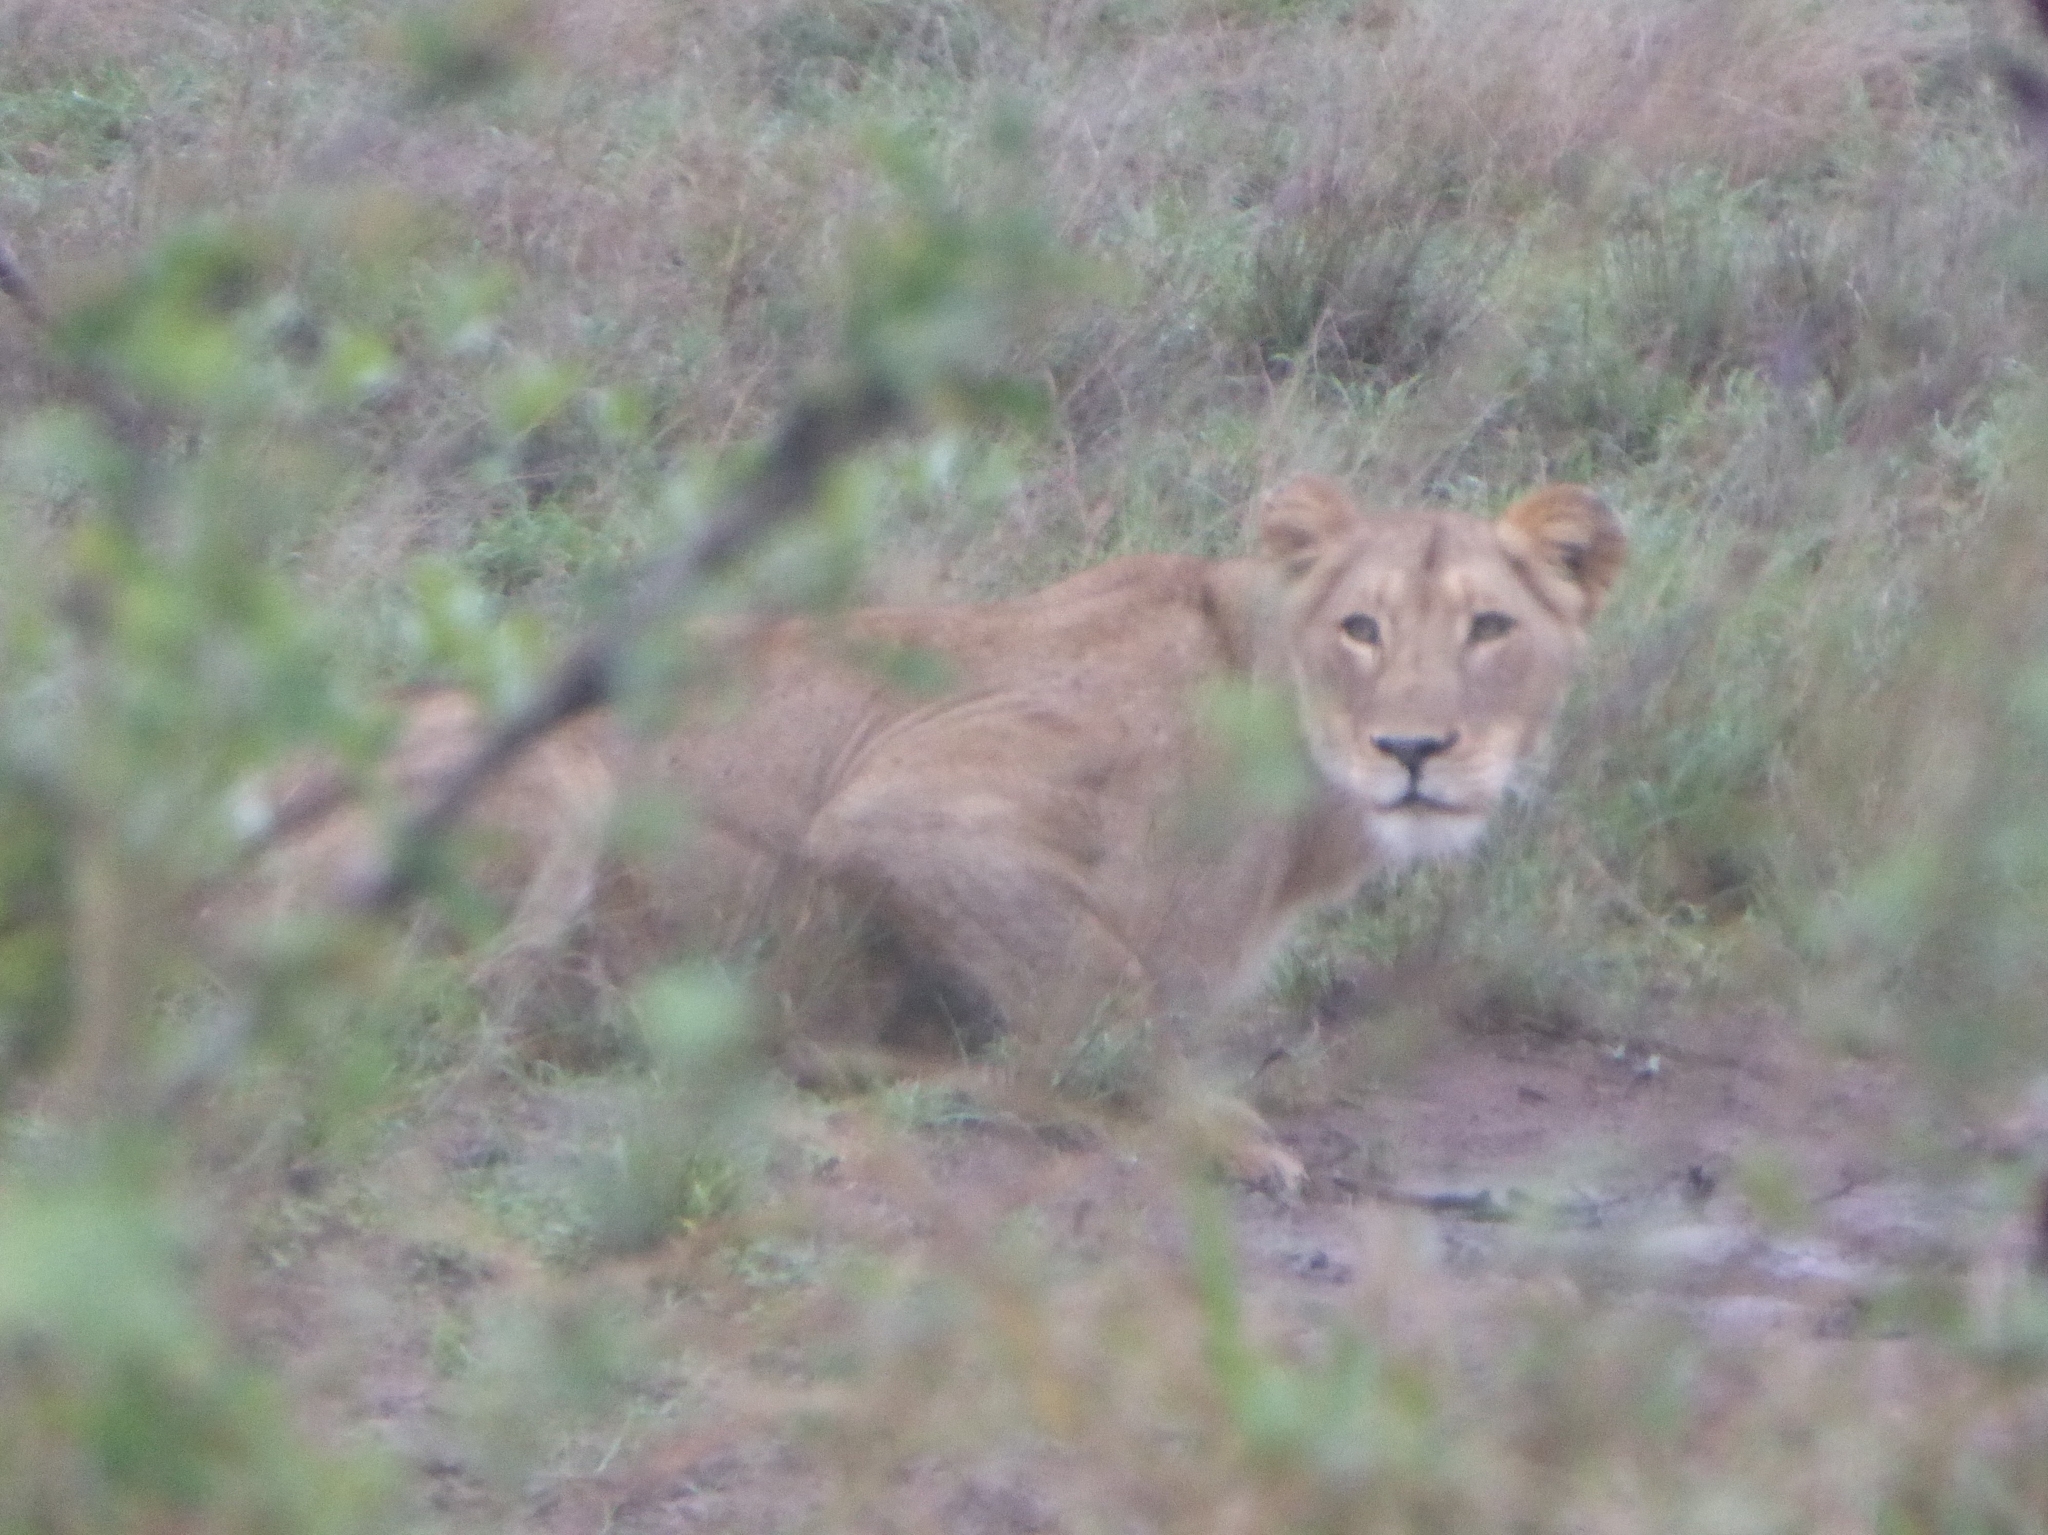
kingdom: Animalia
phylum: Chordata
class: Mammalia
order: Carnivora
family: Felidae
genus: Panthera
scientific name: Panthera leo
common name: Lion
